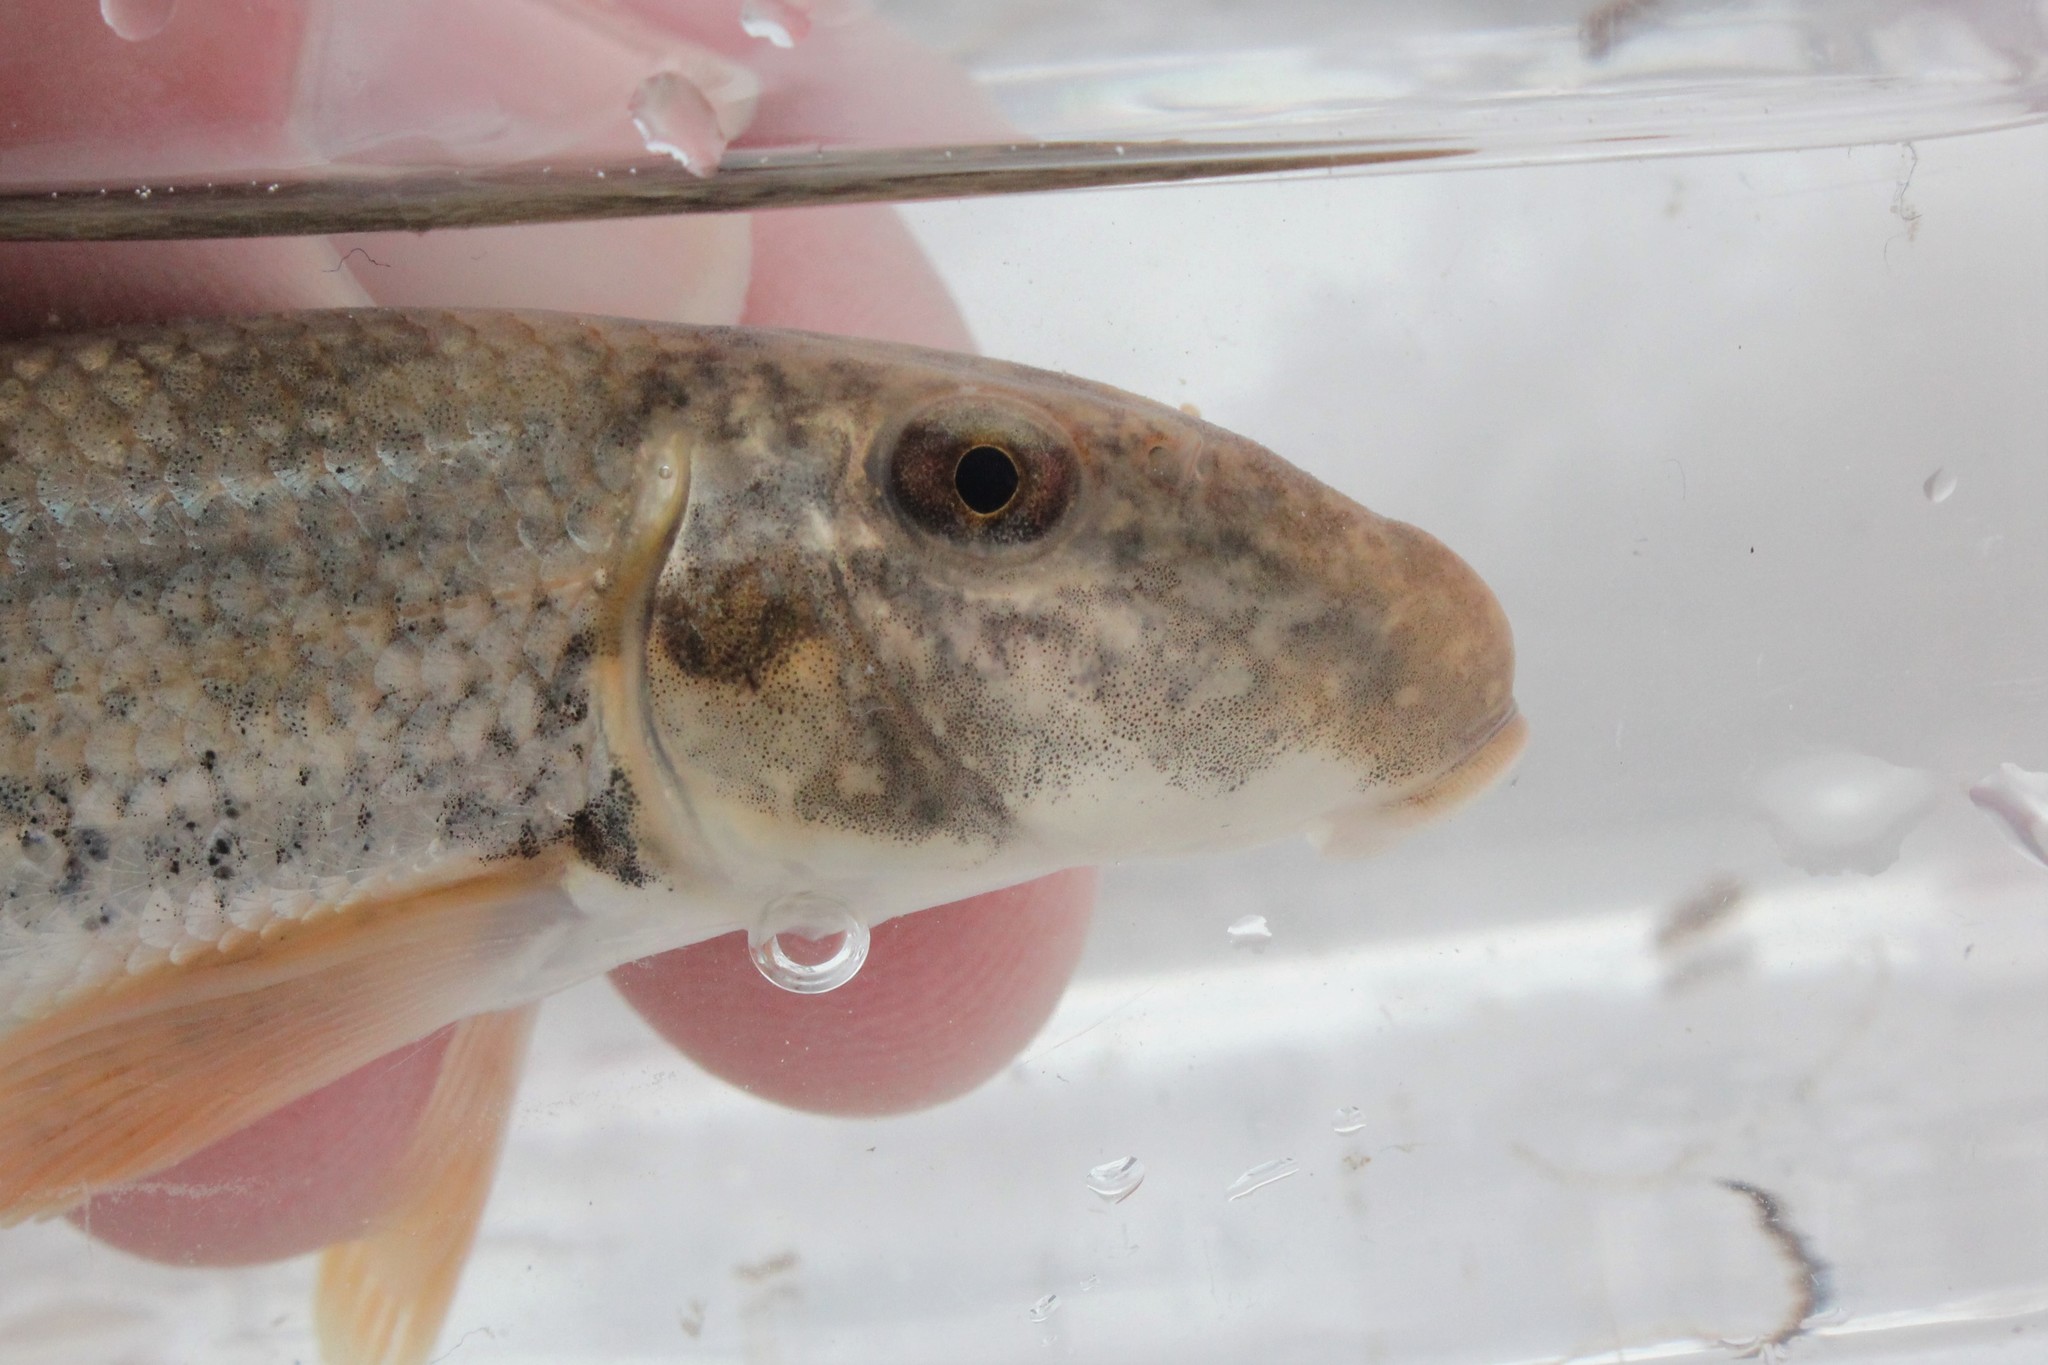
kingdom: Animalia
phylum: Chordata
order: Cypriniformes
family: Catostomidae
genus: Hypentelium
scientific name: Hypentelium nigricans
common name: Northern hog sucker
